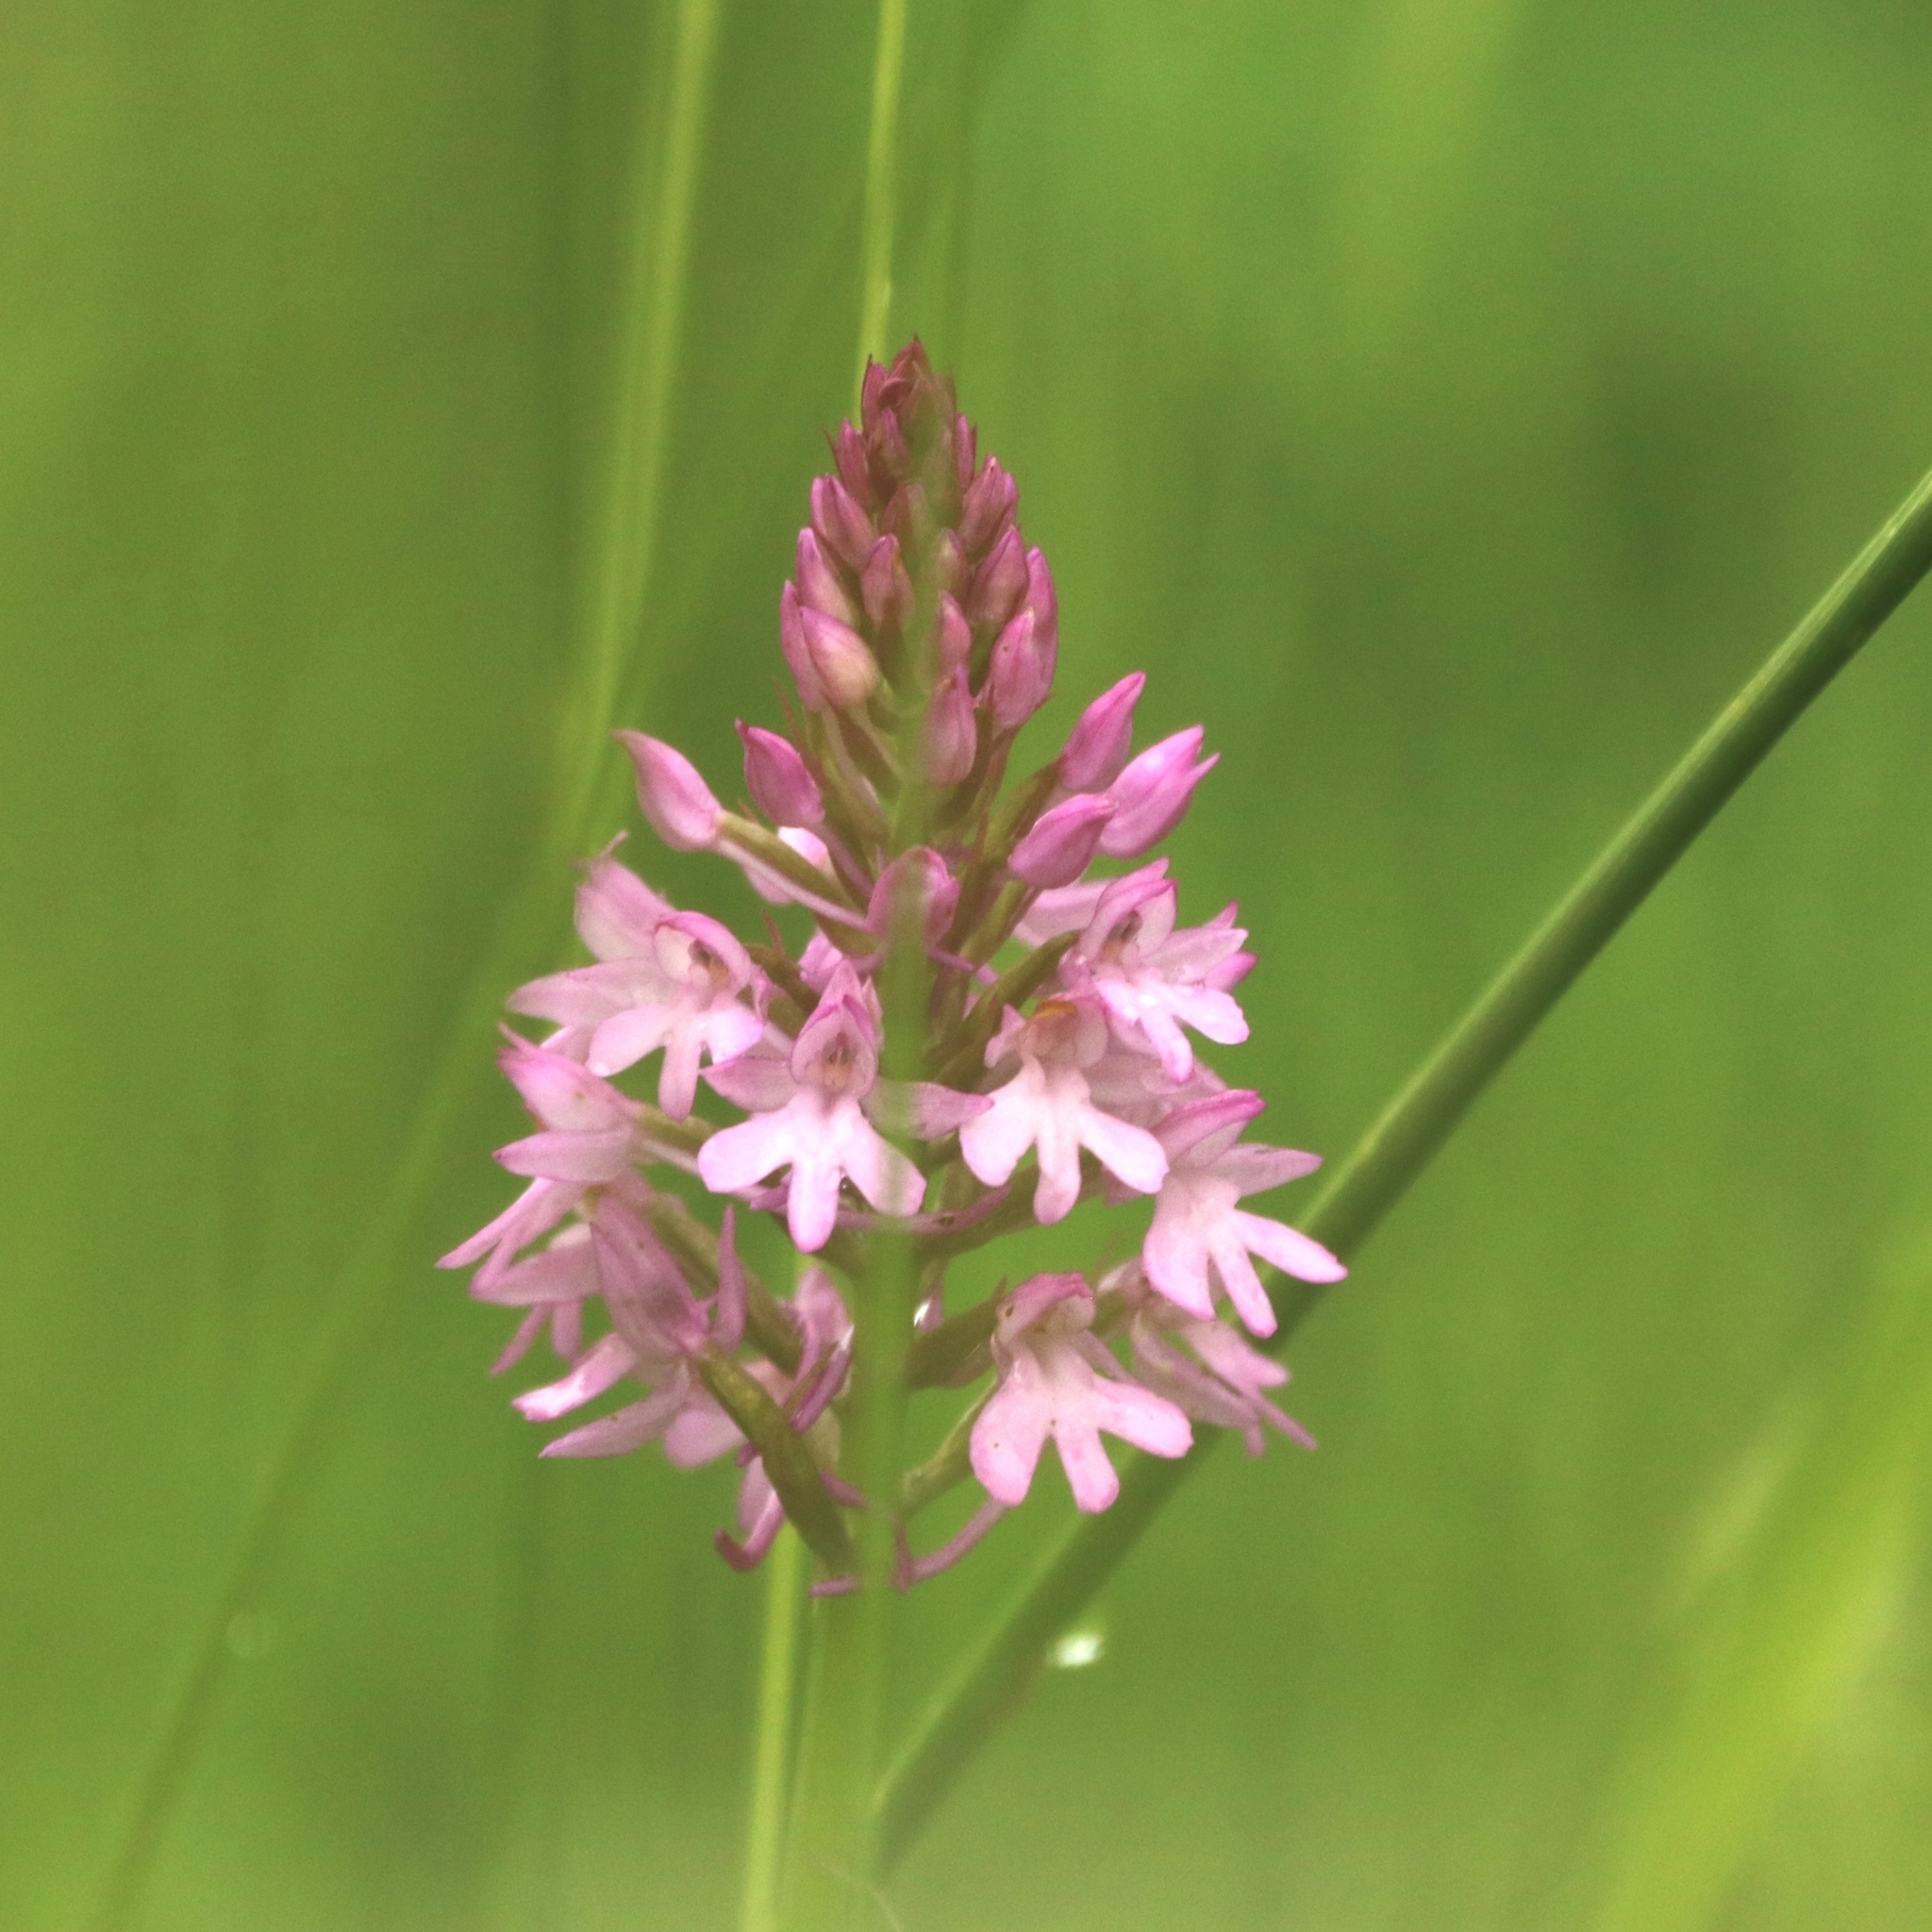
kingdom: Plantae
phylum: Tracheophyta
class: Liliopsida
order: Asparagales
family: Orchidaceae
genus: Anacamptis
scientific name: Anacamptis pyramidalis
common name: Pyramidal orchid
